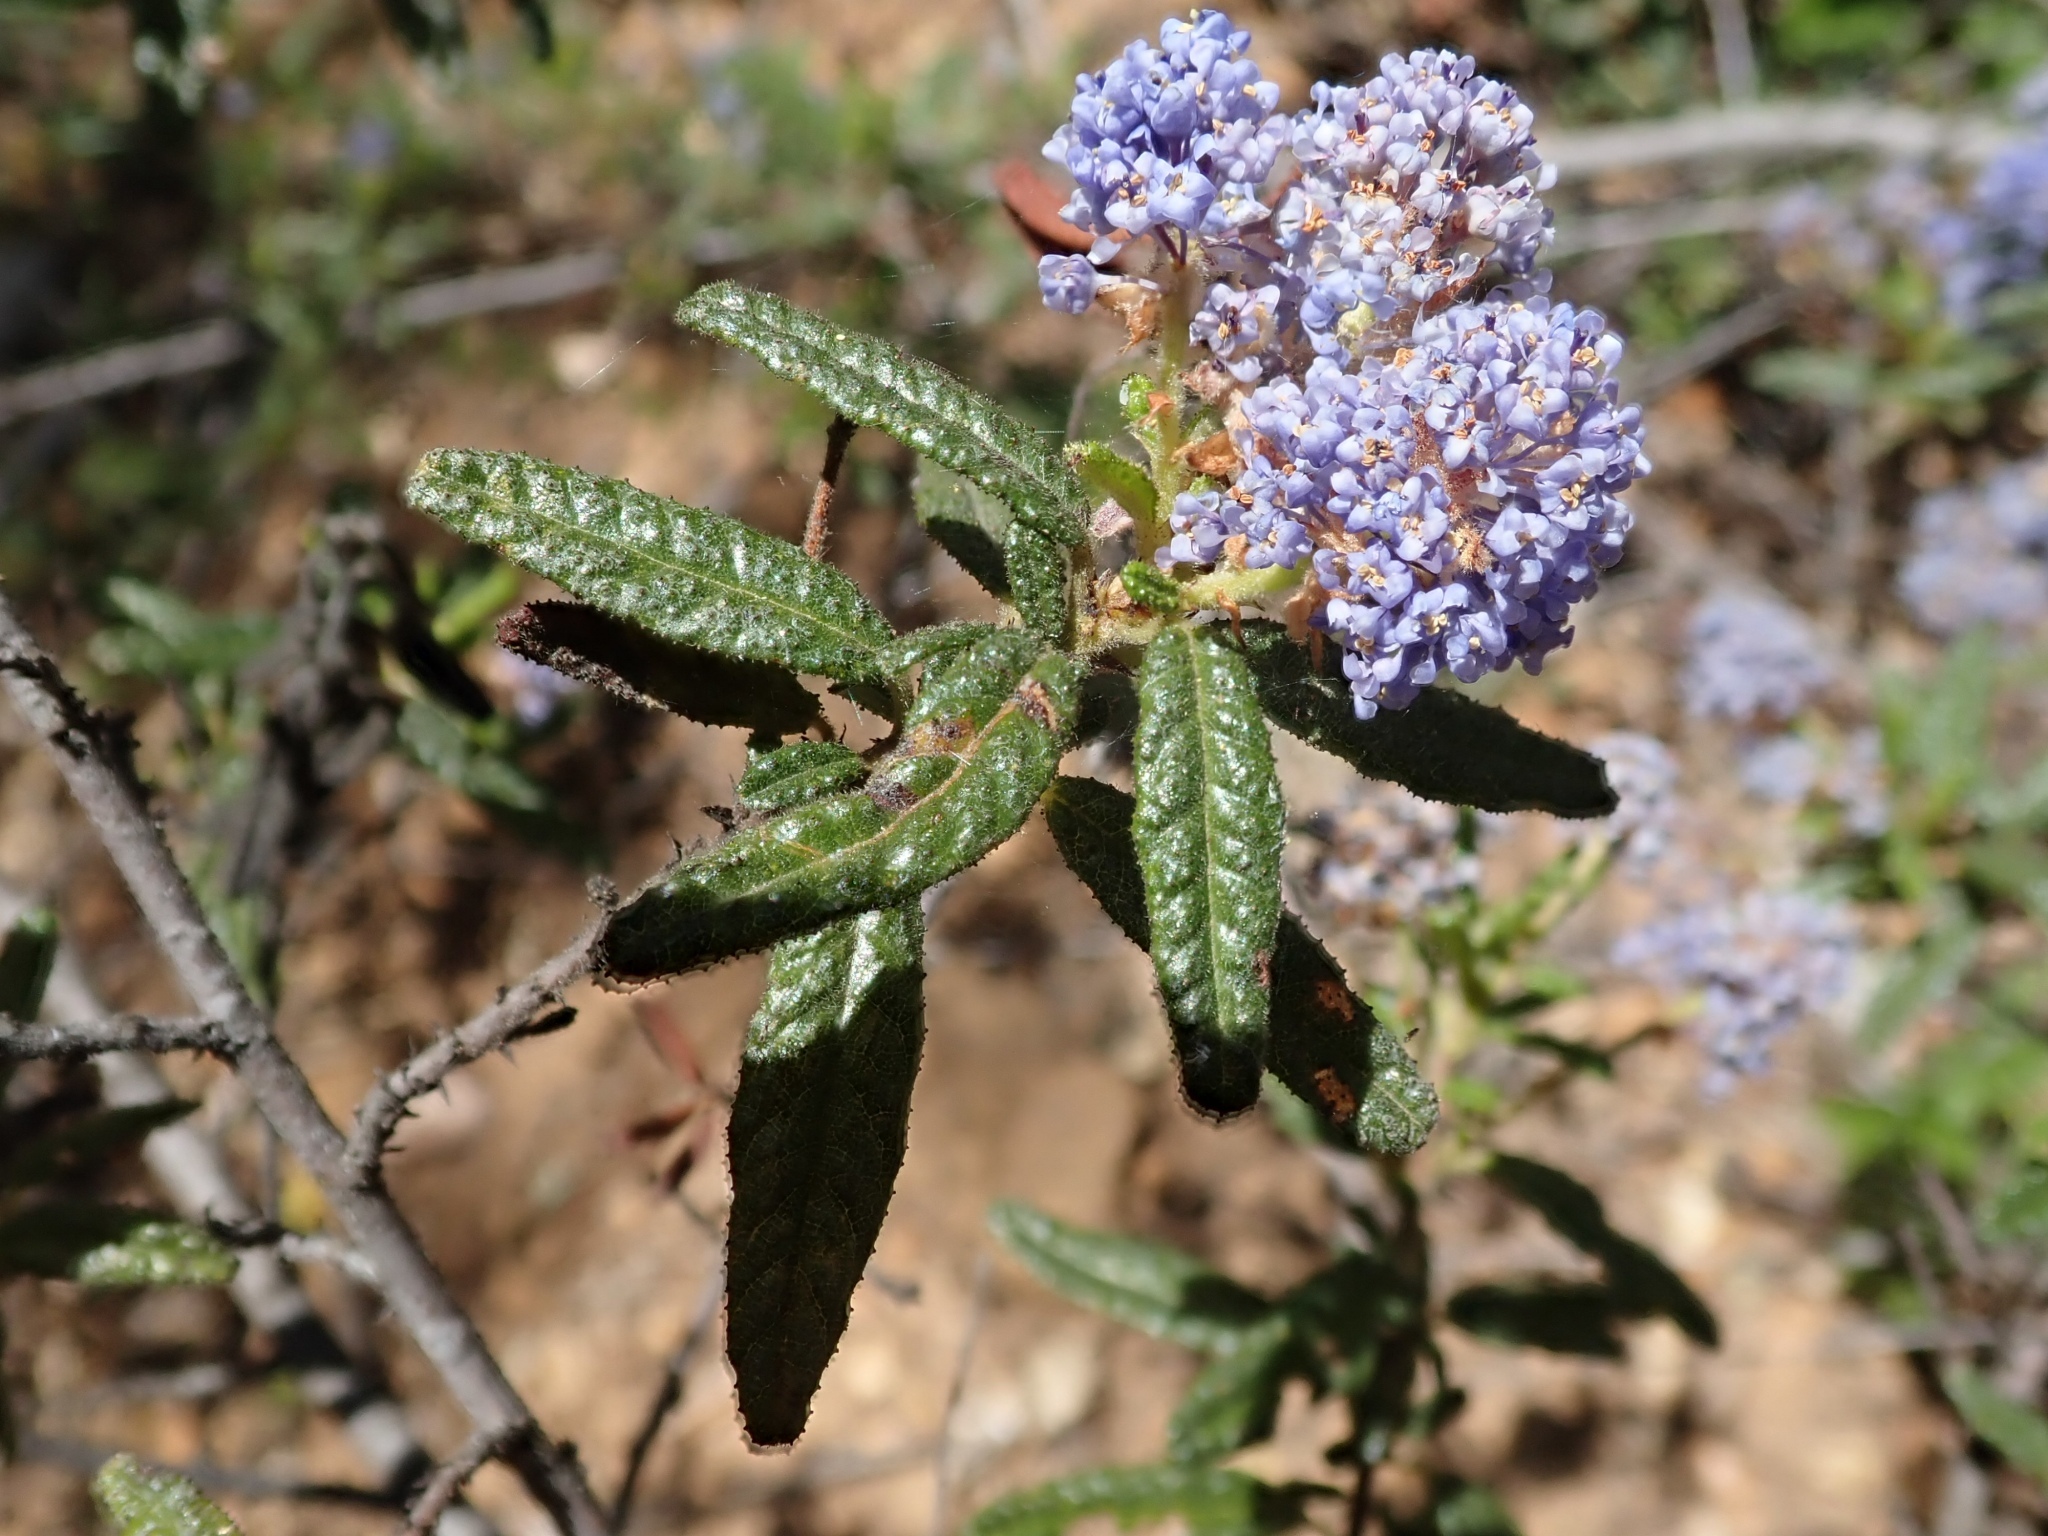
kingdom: Plantae
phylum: Tracheophyta
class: Magnoliopsida
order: Rosales
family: Rhamnaceae
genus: Ceanothus
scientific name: Ceanothus papillosus
